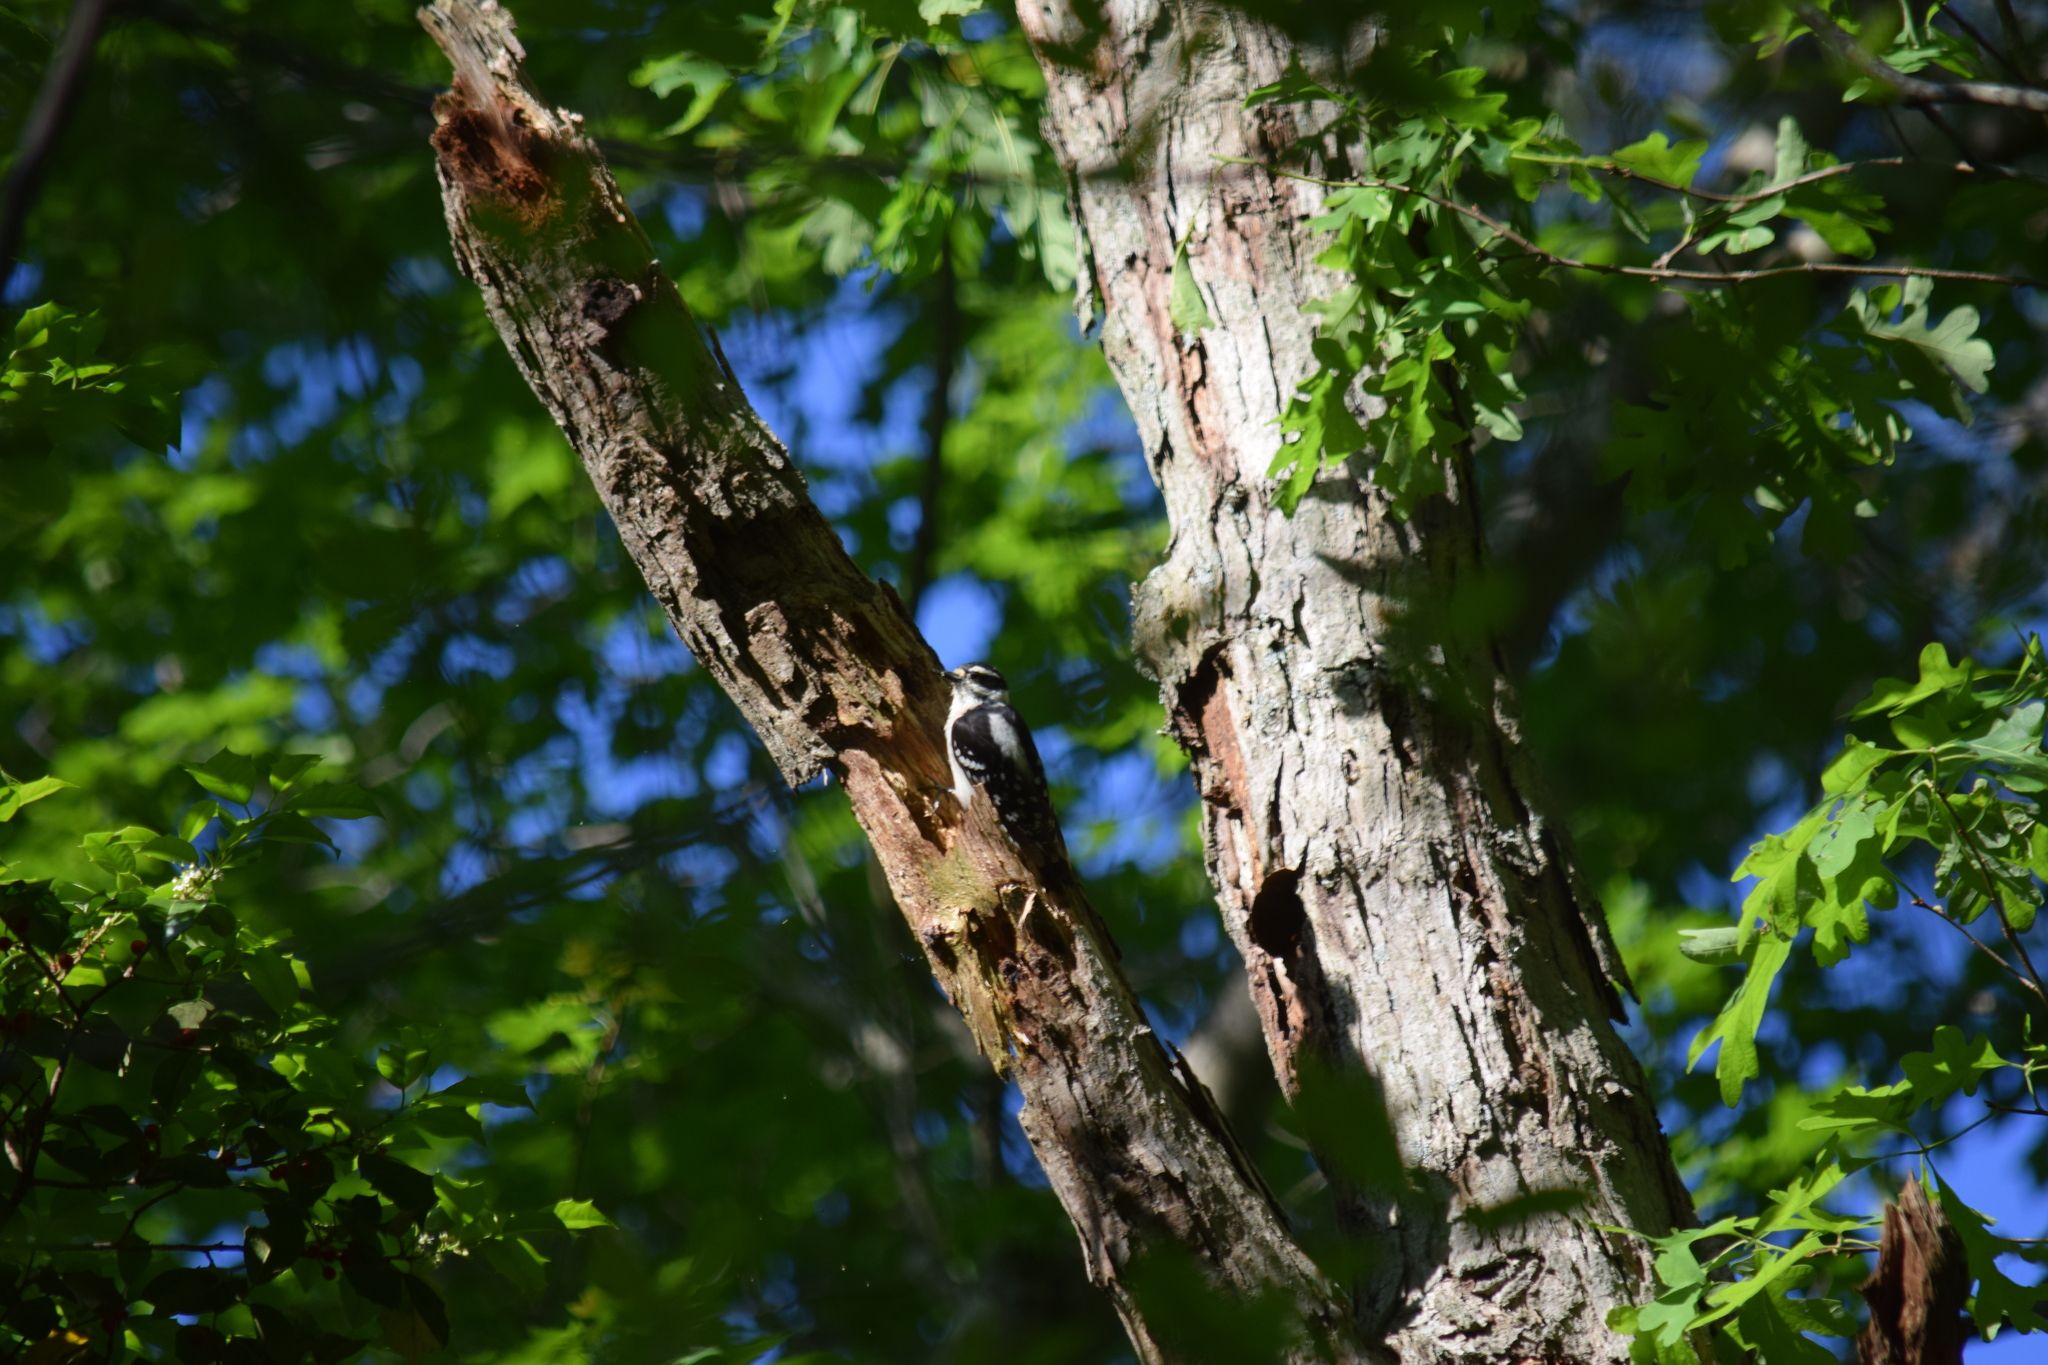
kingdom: Animalia
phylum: Chordata
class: Aves
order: Piciformes
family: Picidae
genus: Dryobates
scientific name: Dryobates pubescens
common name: Downy woodpecker
